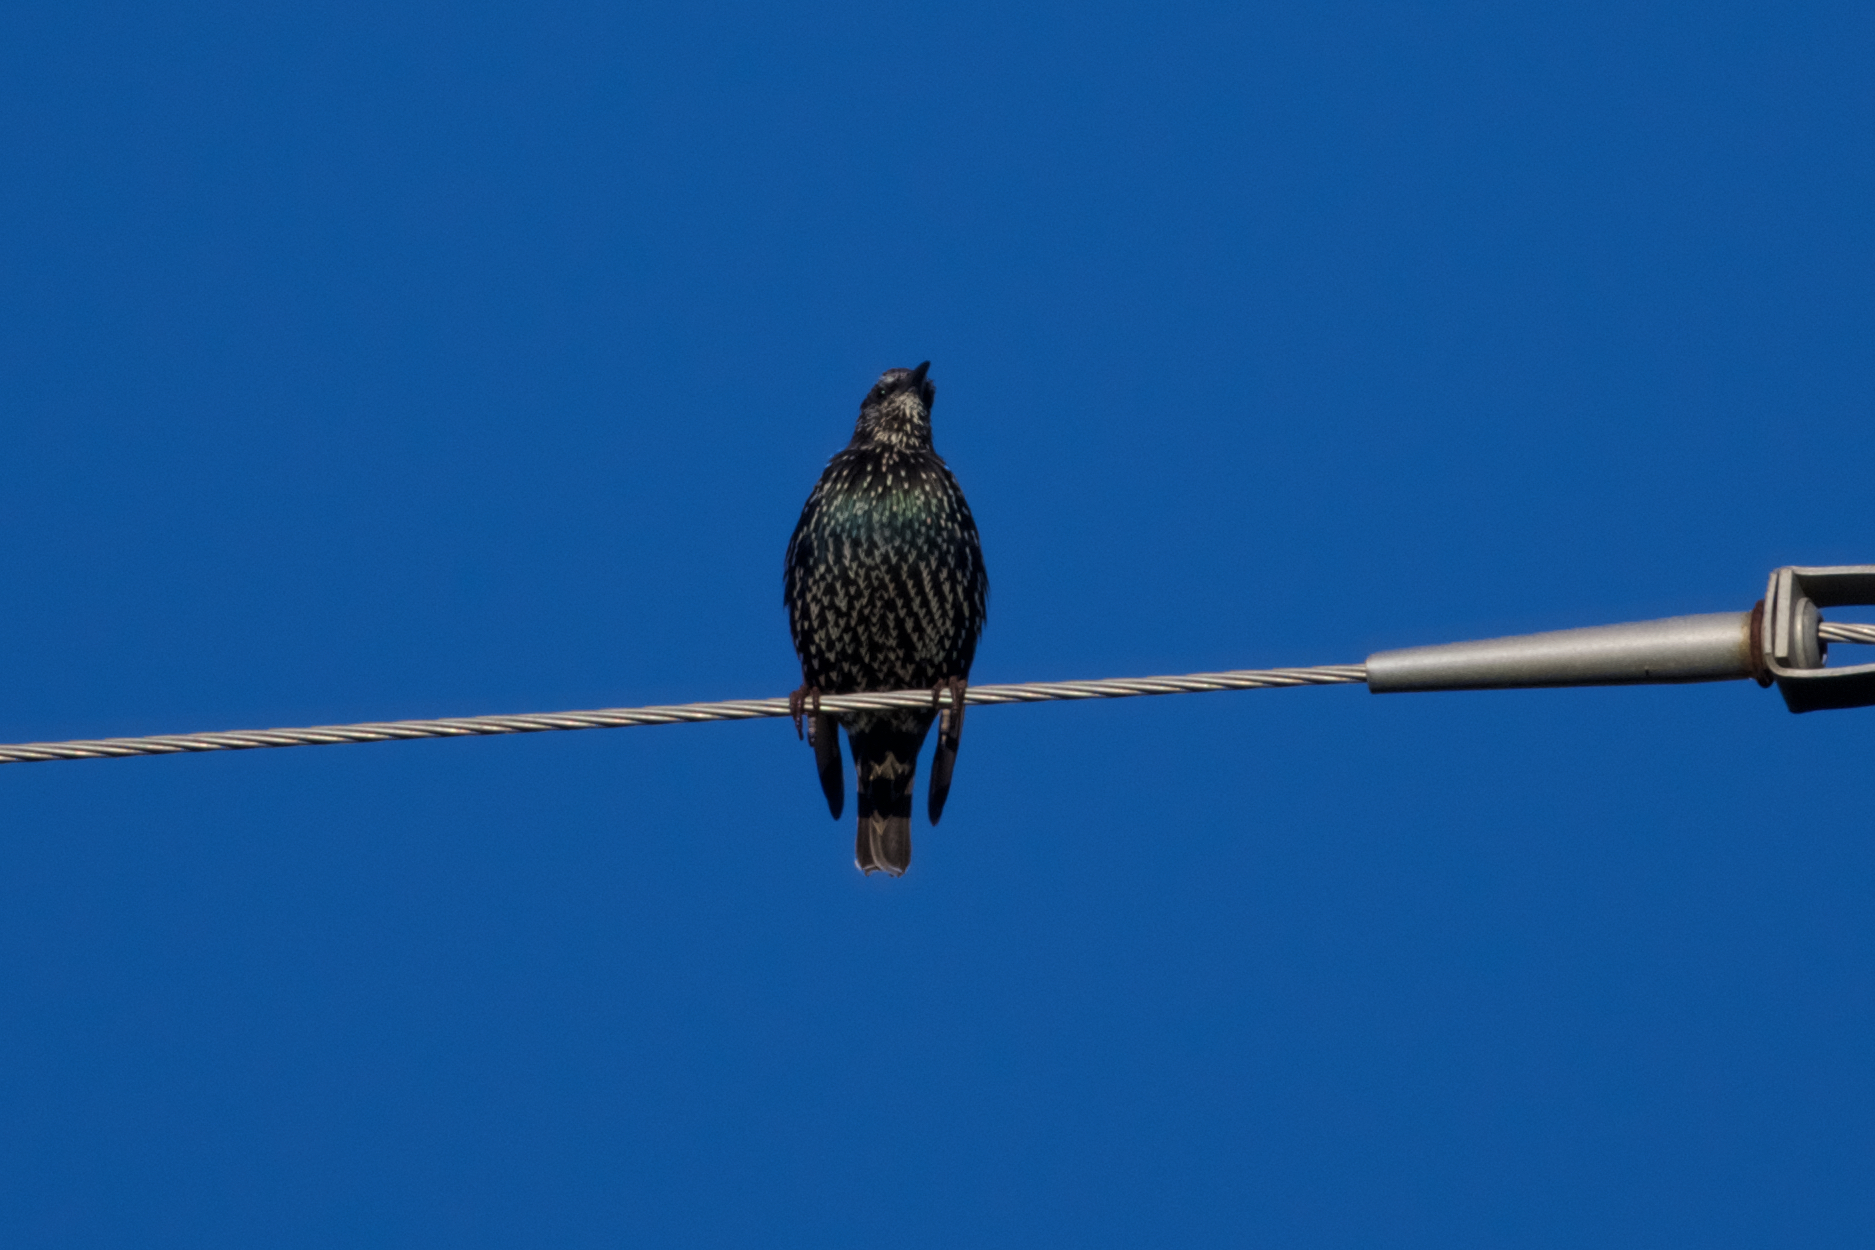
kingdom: Animalia
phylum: Chordata
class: Aves
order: Passeriformes
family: Sturnidae
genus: Sturnus
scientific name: Sturnus vulgaris
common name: Common starling
